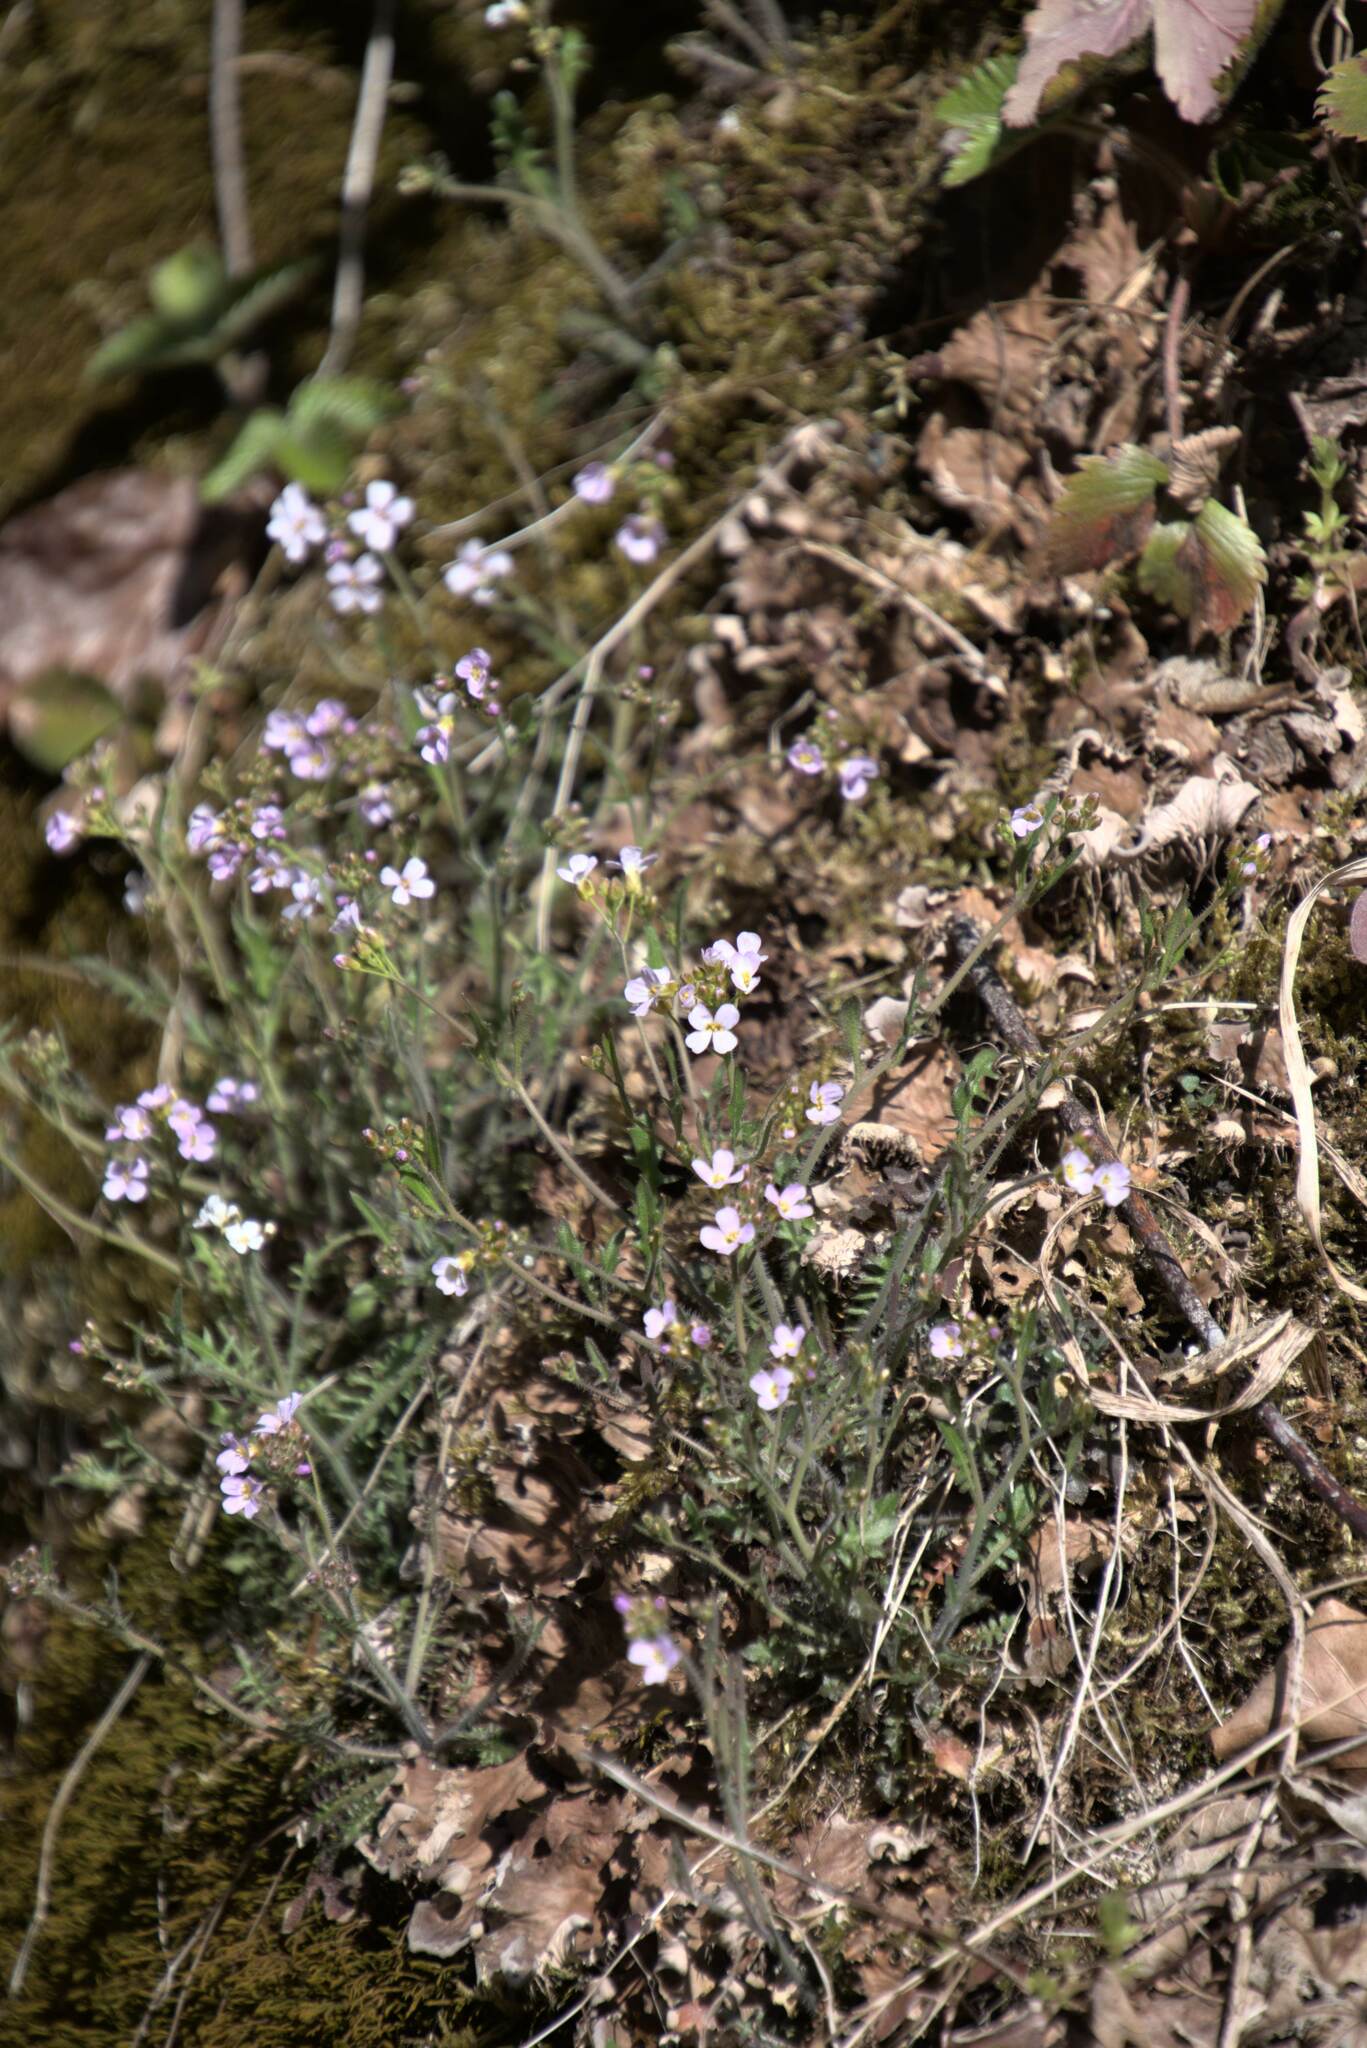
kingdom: Plantae
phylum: Tracheophyta
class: Magnoliopsida
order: Brassicales
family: Brassicaceae
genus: Arabidopsis
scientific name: Arabidopsis arenosa
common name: Sand rock-cress
